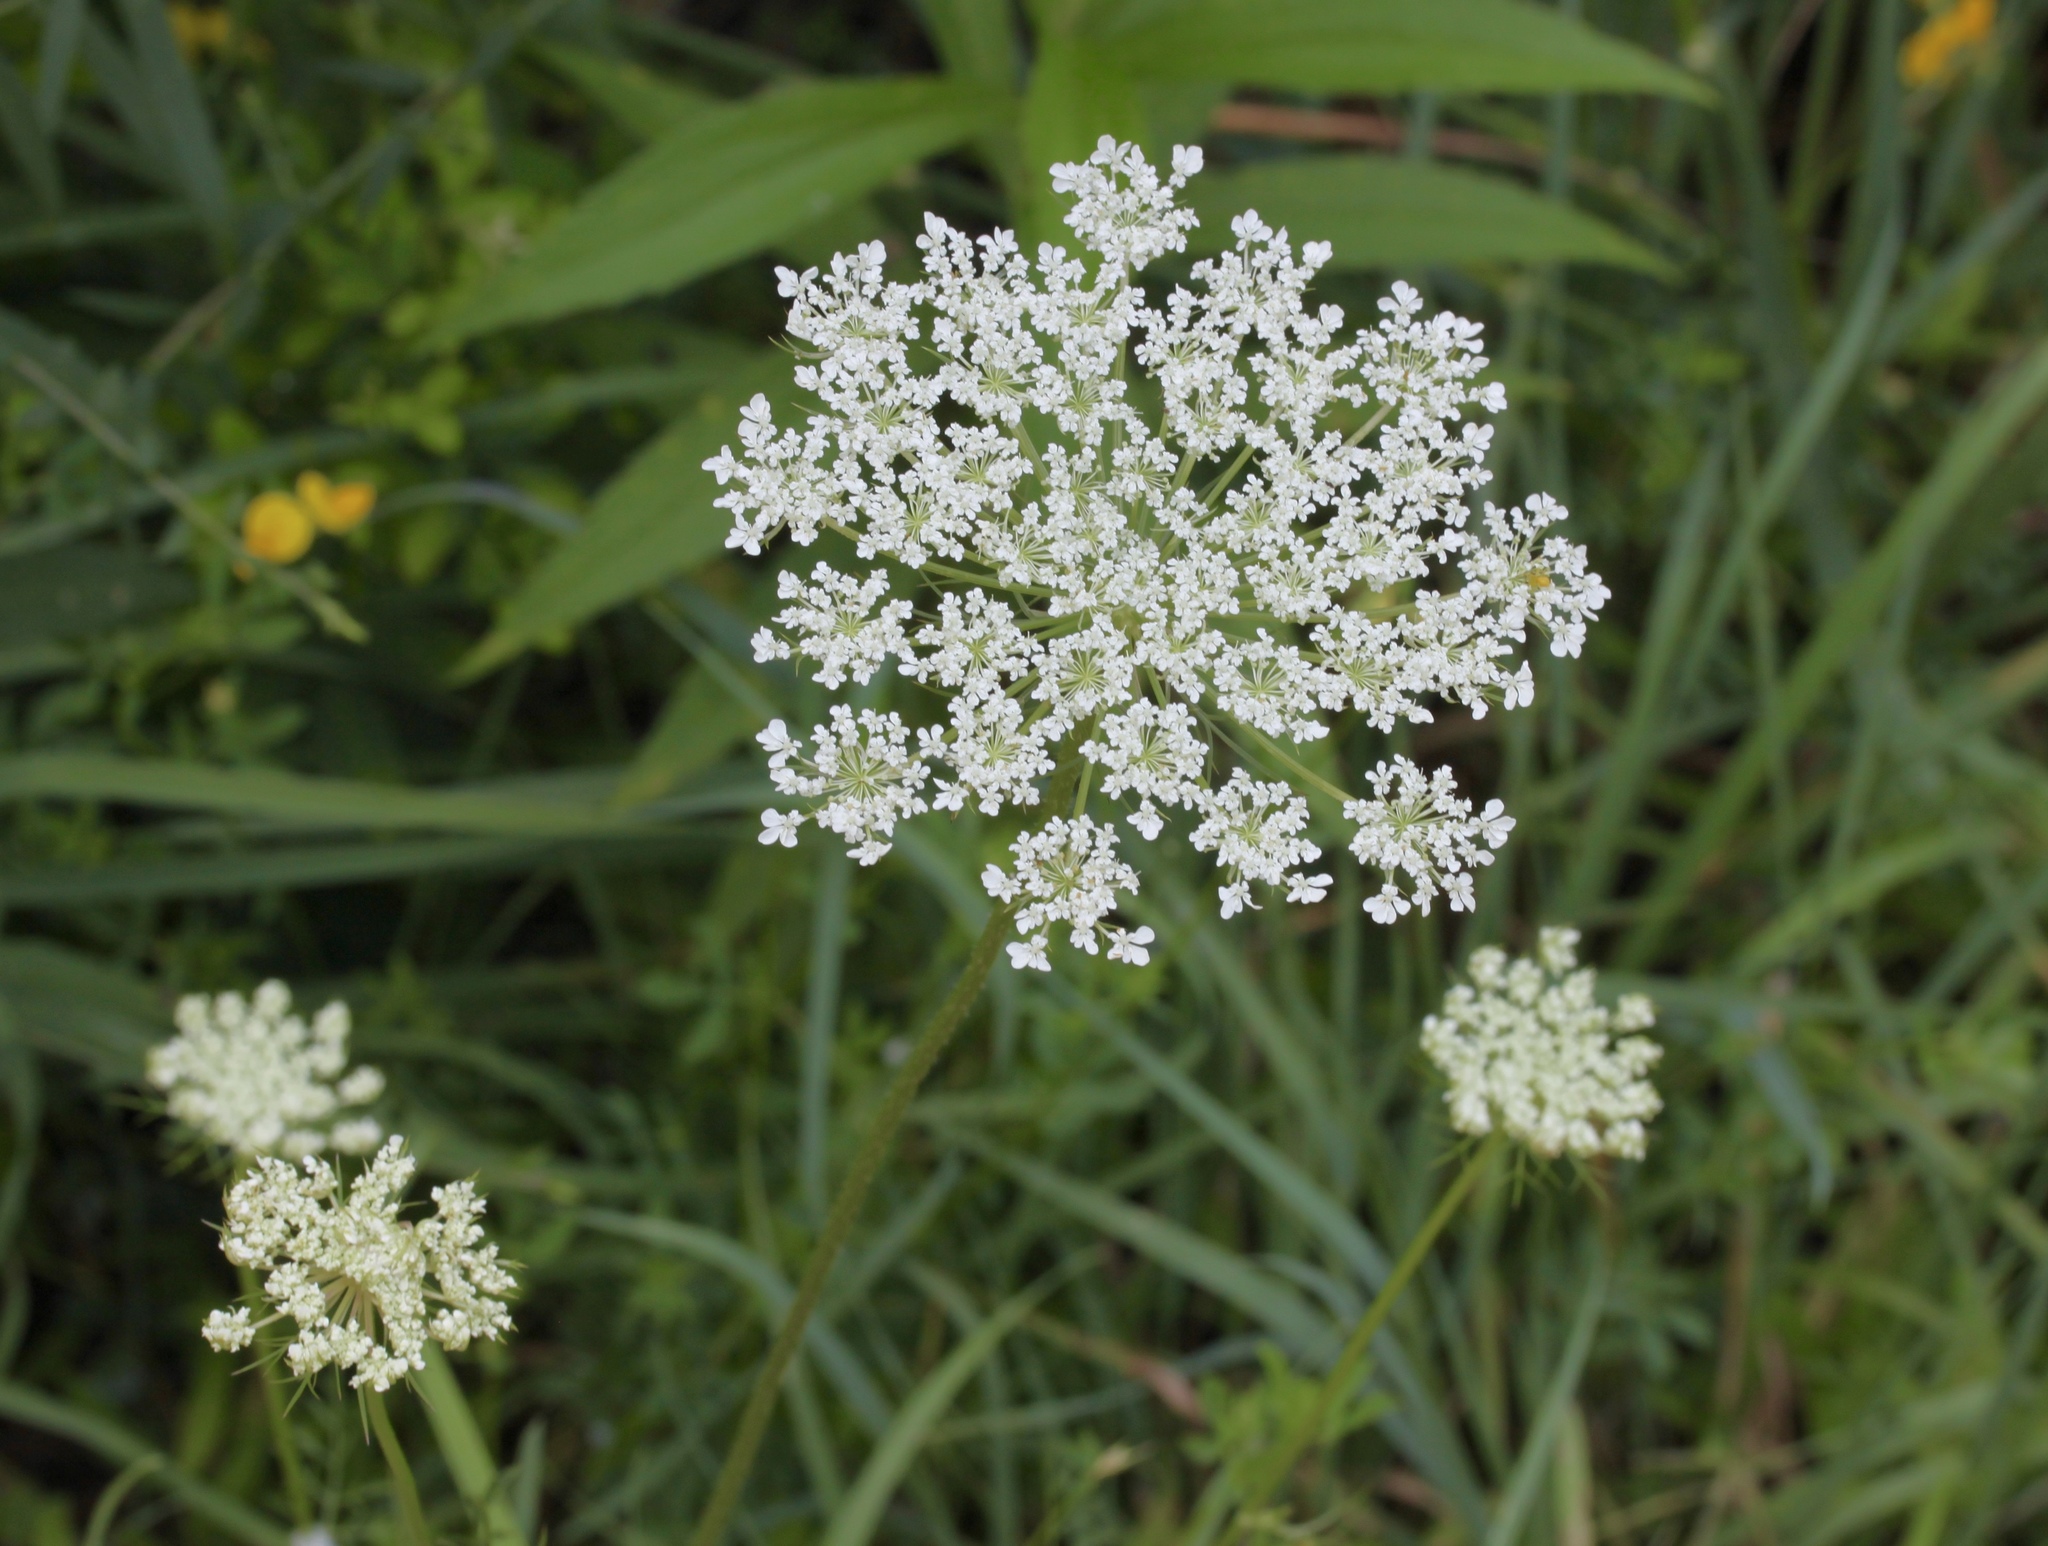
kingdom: Plantae
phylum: Tracheophyta
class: Magnoliopsida
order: Apiales
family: Apiaceae
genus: Daucus
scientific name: Daucus carota
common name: Wild carrot
